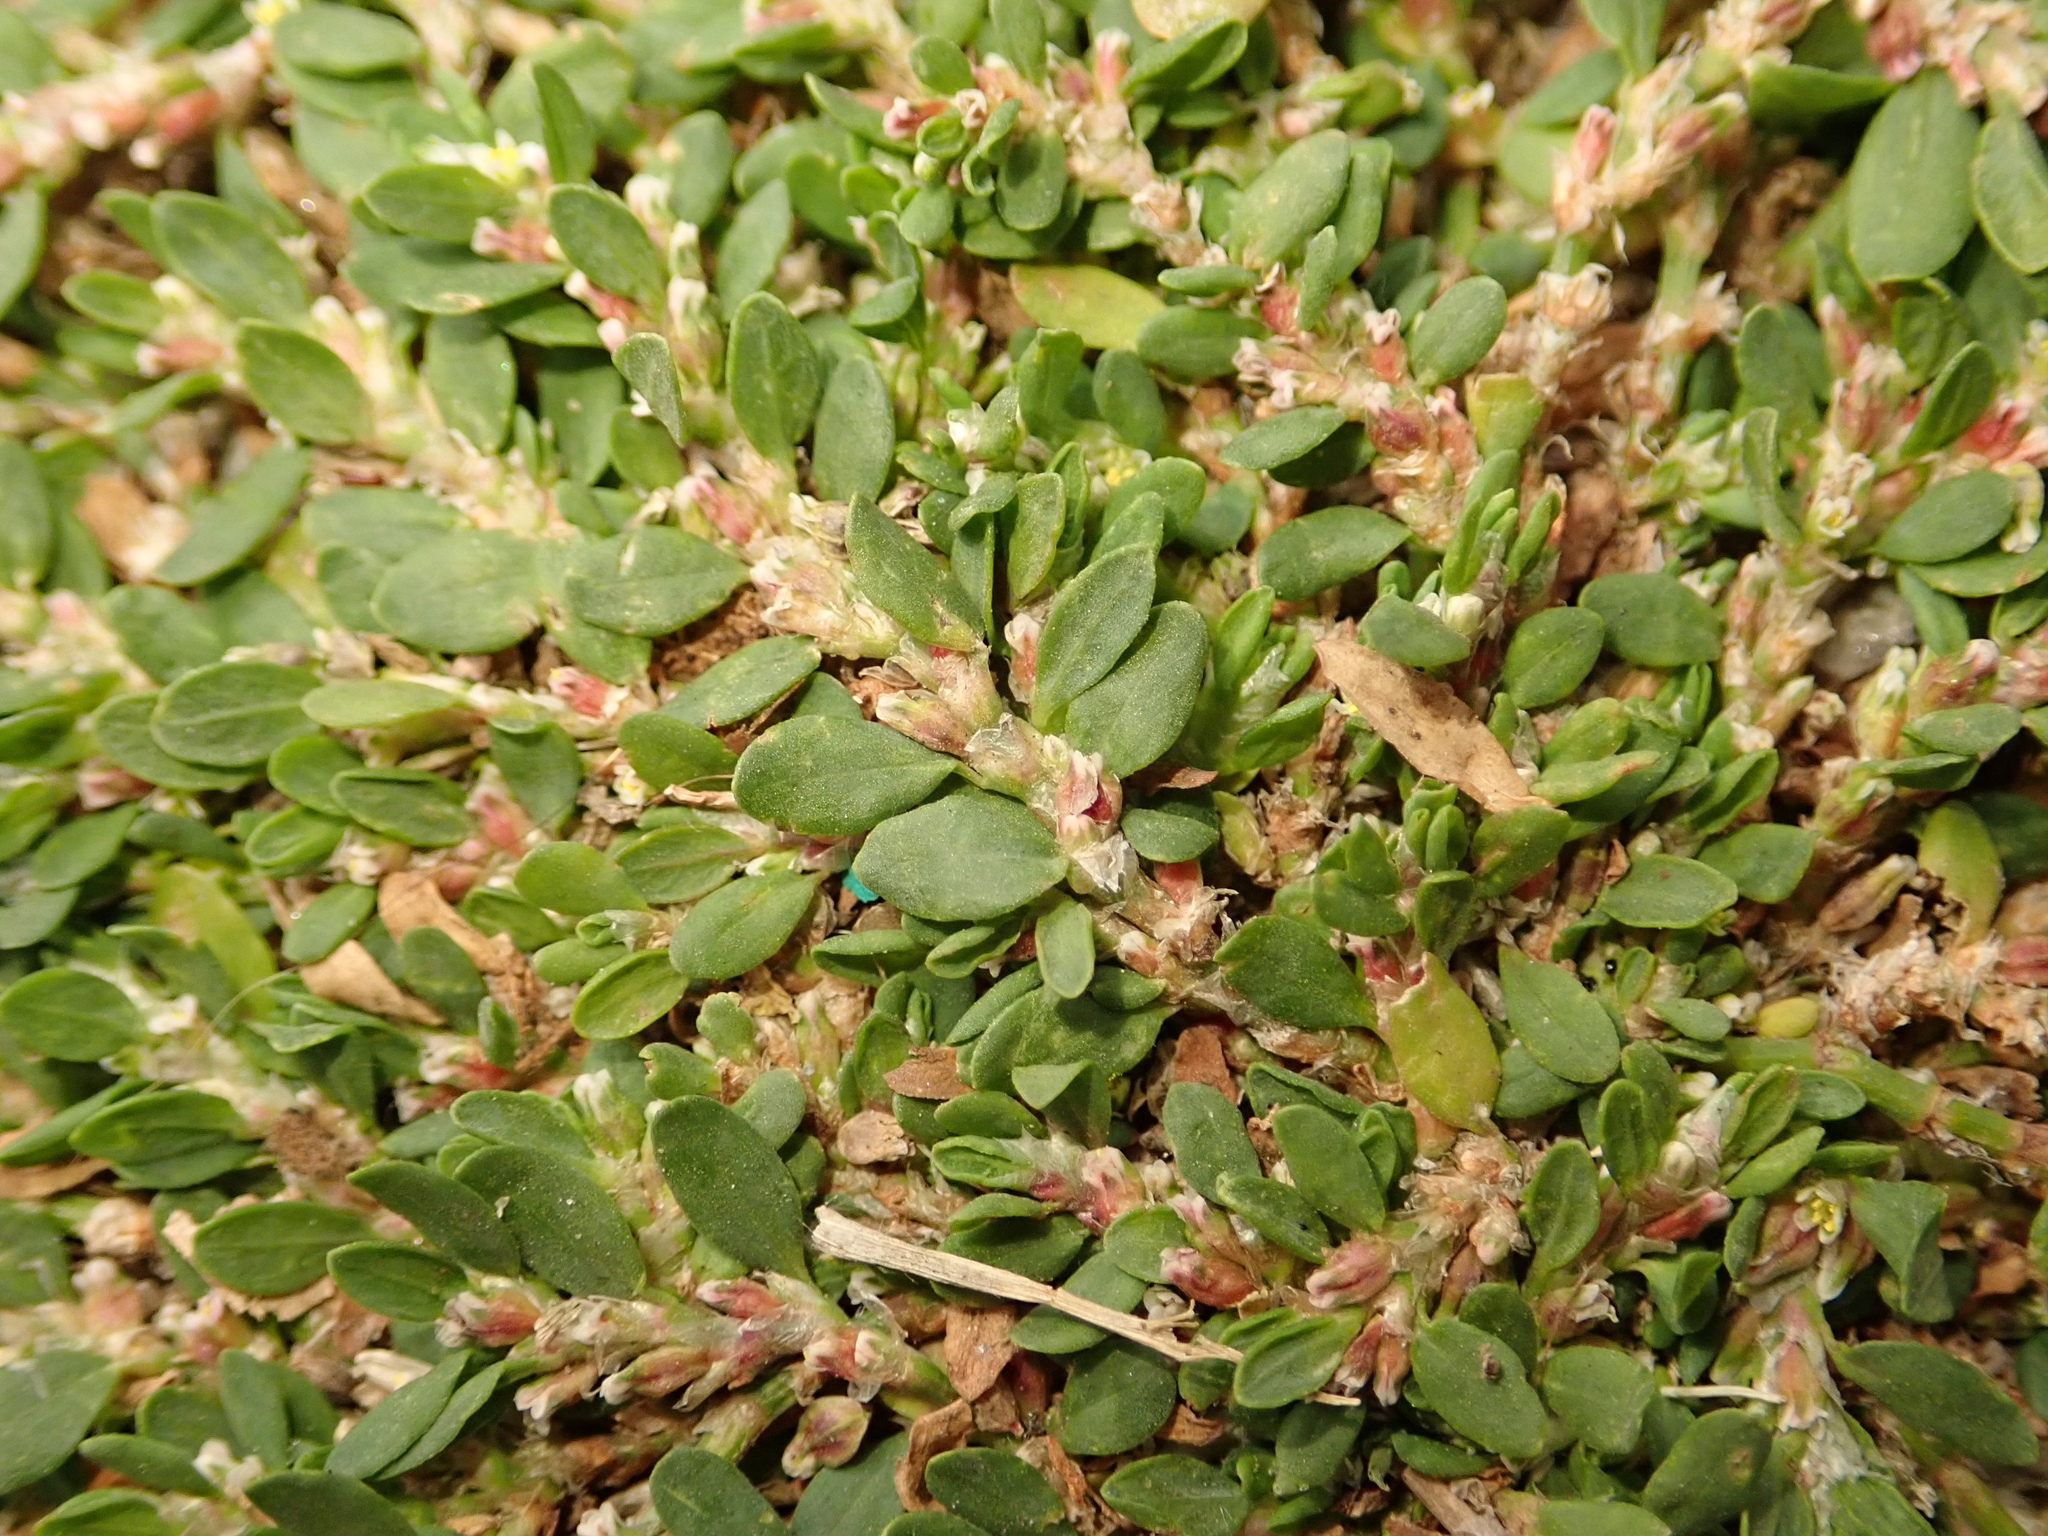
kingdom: Plantae
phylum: Tracheophyta
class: Magnoliopsida
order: Caryophyllales
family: Polygonaceae
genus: Polygonum
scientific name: Polygonum arenastrum
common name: Equal-leaved knotgrass
